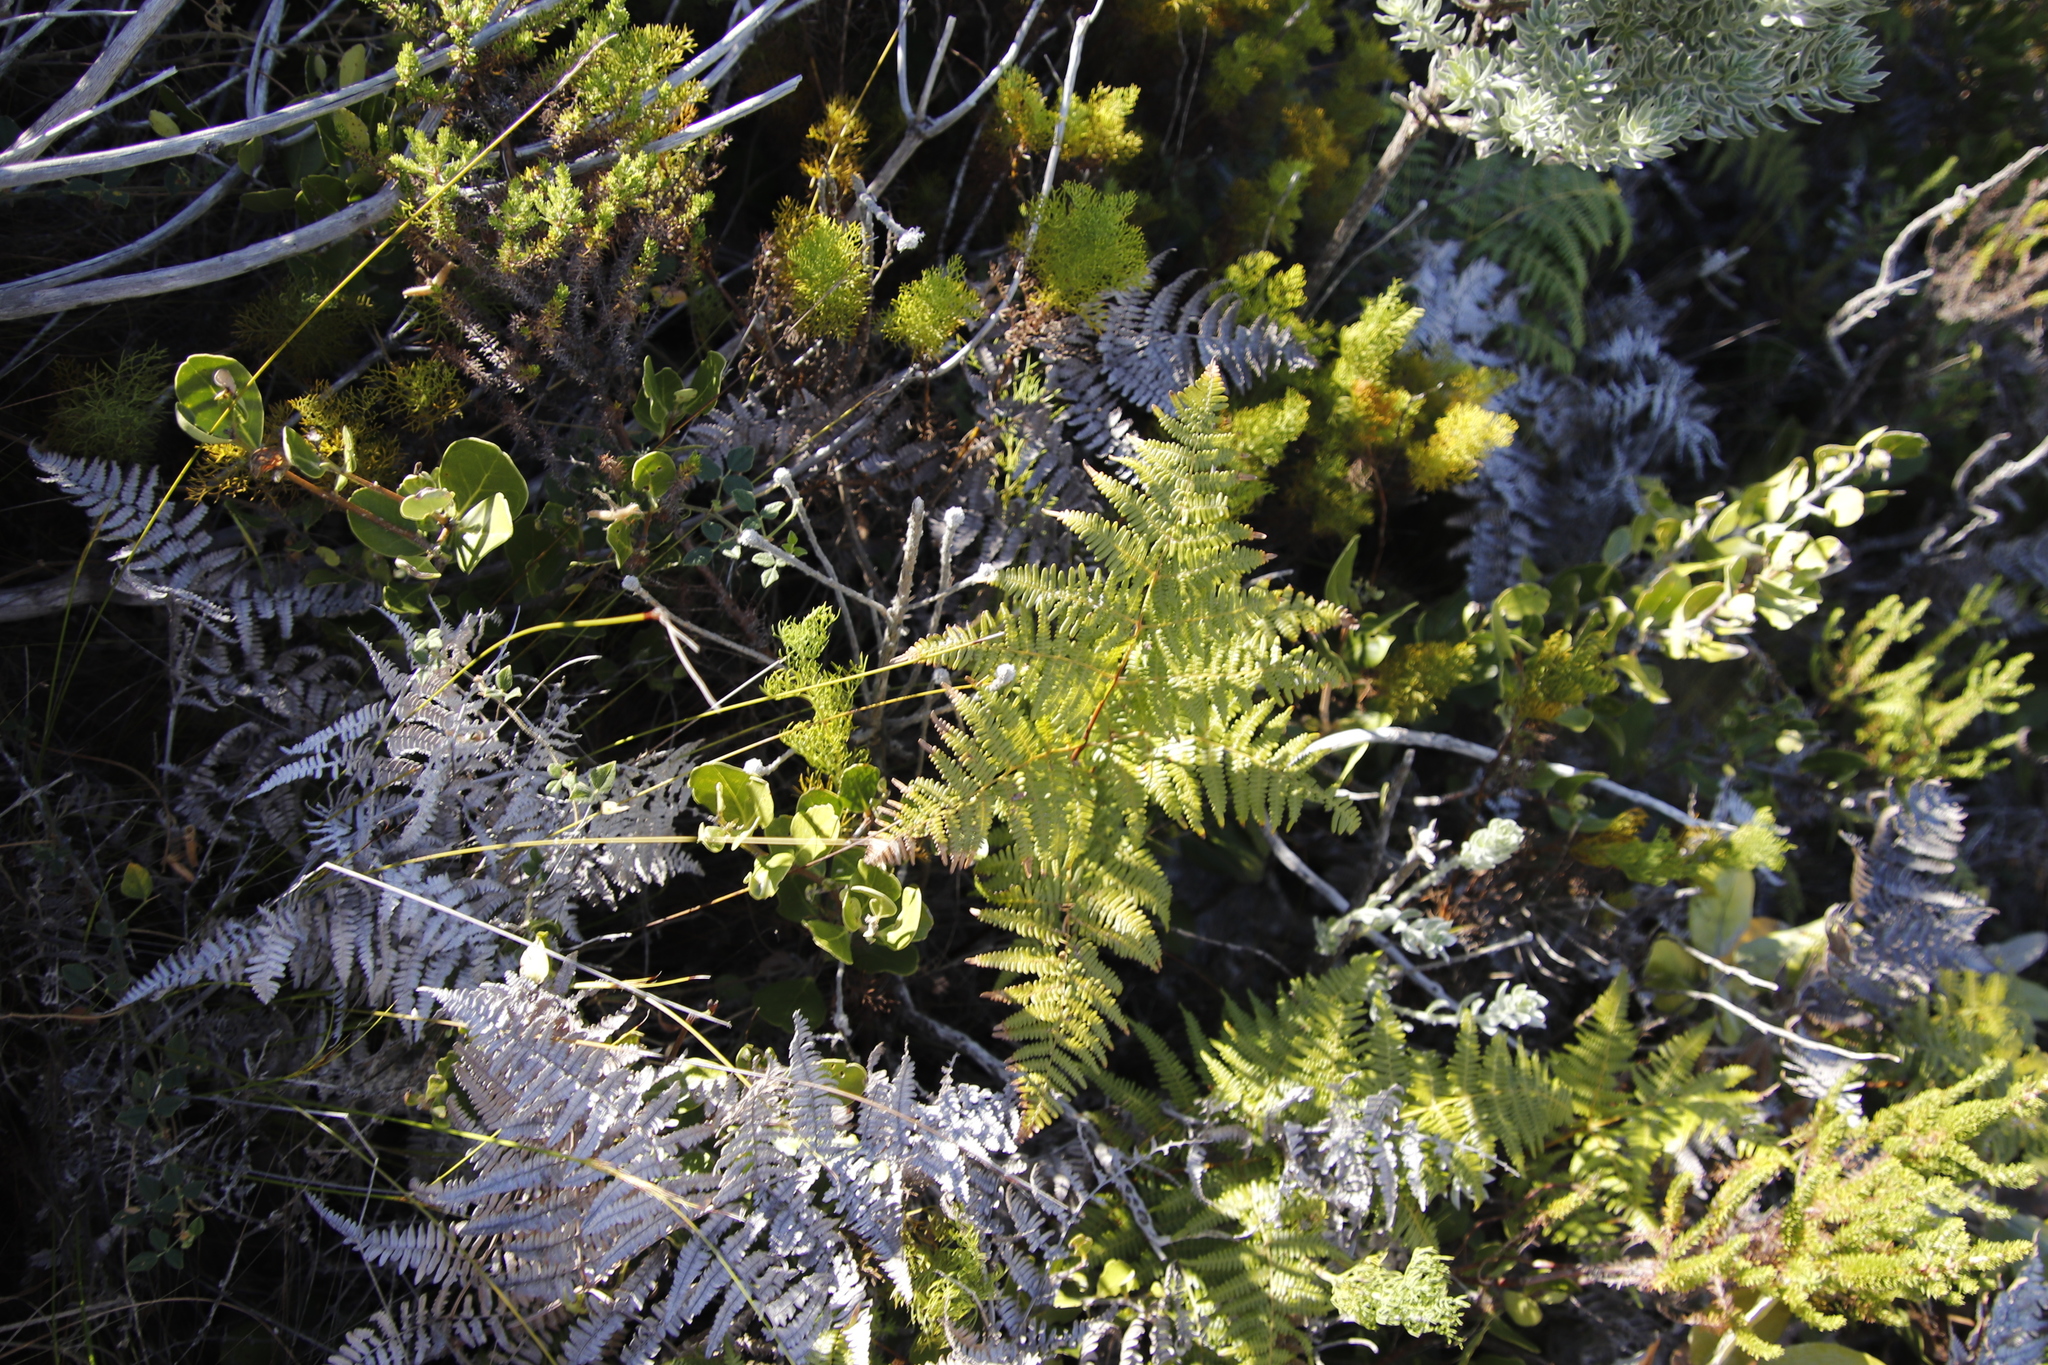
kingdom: Plantae
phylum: Tracheophyta
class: Polypodiopsida
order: Polypodiales
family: Dennstaedtiaceae
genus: Pteridium
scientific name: Pteridium aquilinum
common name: Bracken
